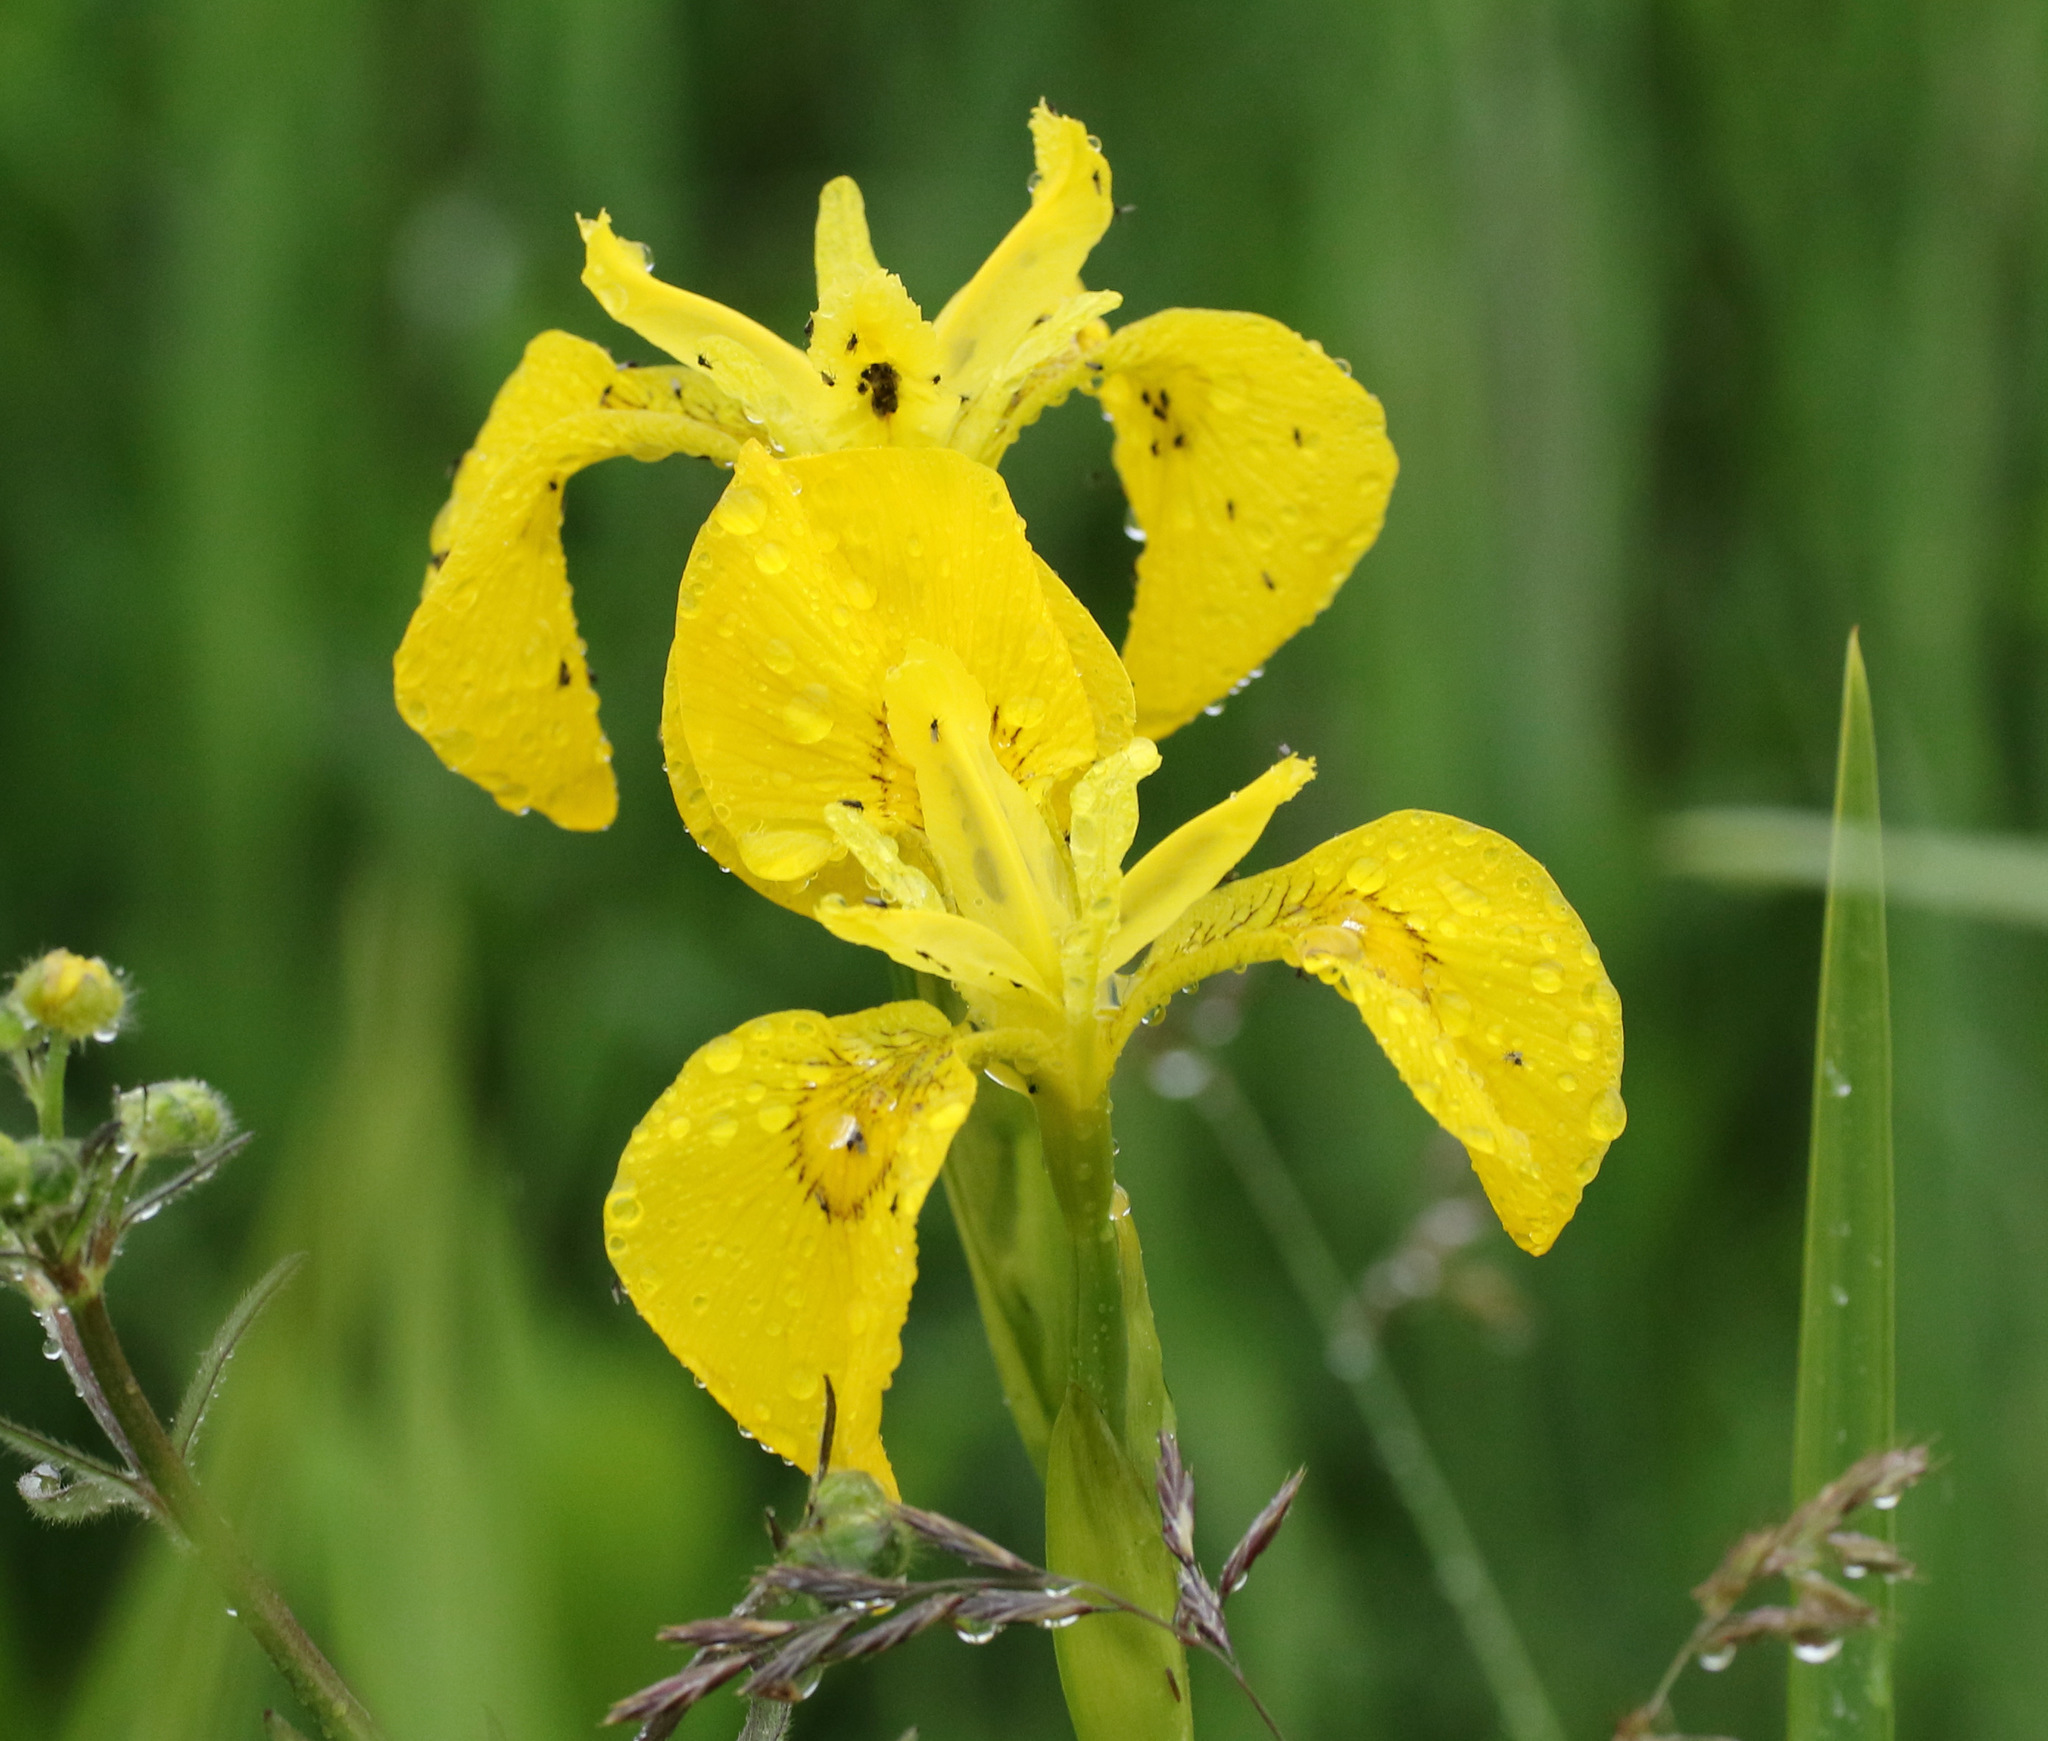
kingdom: Plantae
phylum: Tracheophyta
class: Liliopsida
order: Asparagales
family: Iridaceae
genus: Iris
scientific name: Iris pseudacorus
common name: Yellow flag
